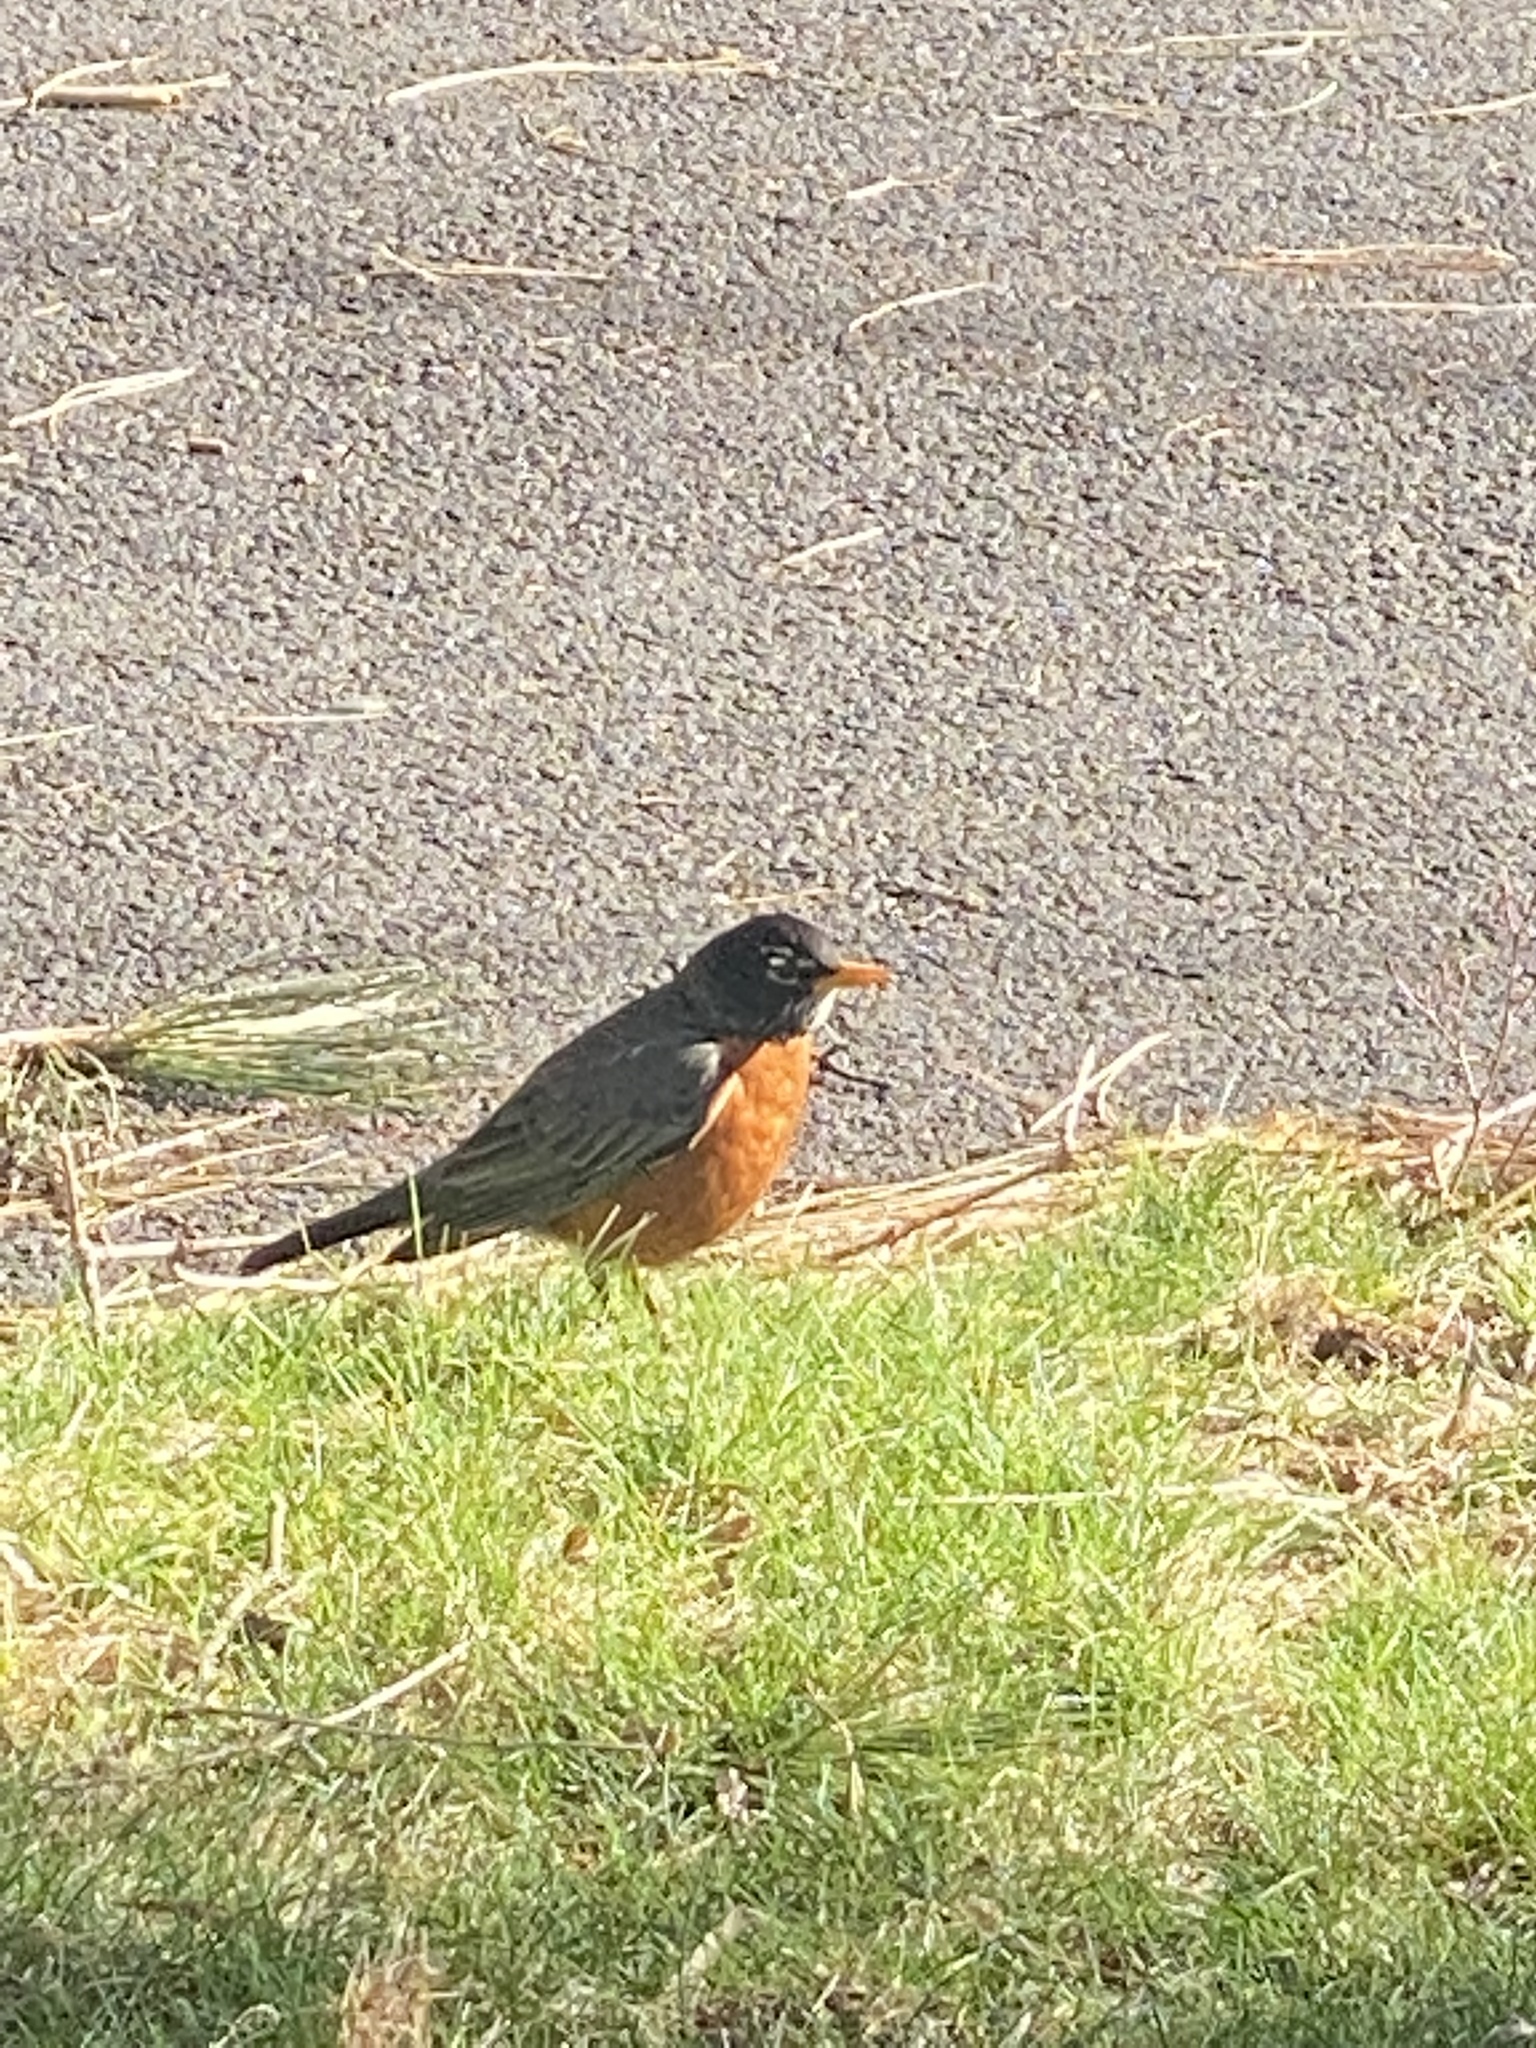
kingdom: Animalia
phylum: Chordata
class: Aves
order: Passeriformes
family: Turdidae
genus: Turdus
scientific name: Turdus migratorius
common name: American robin
